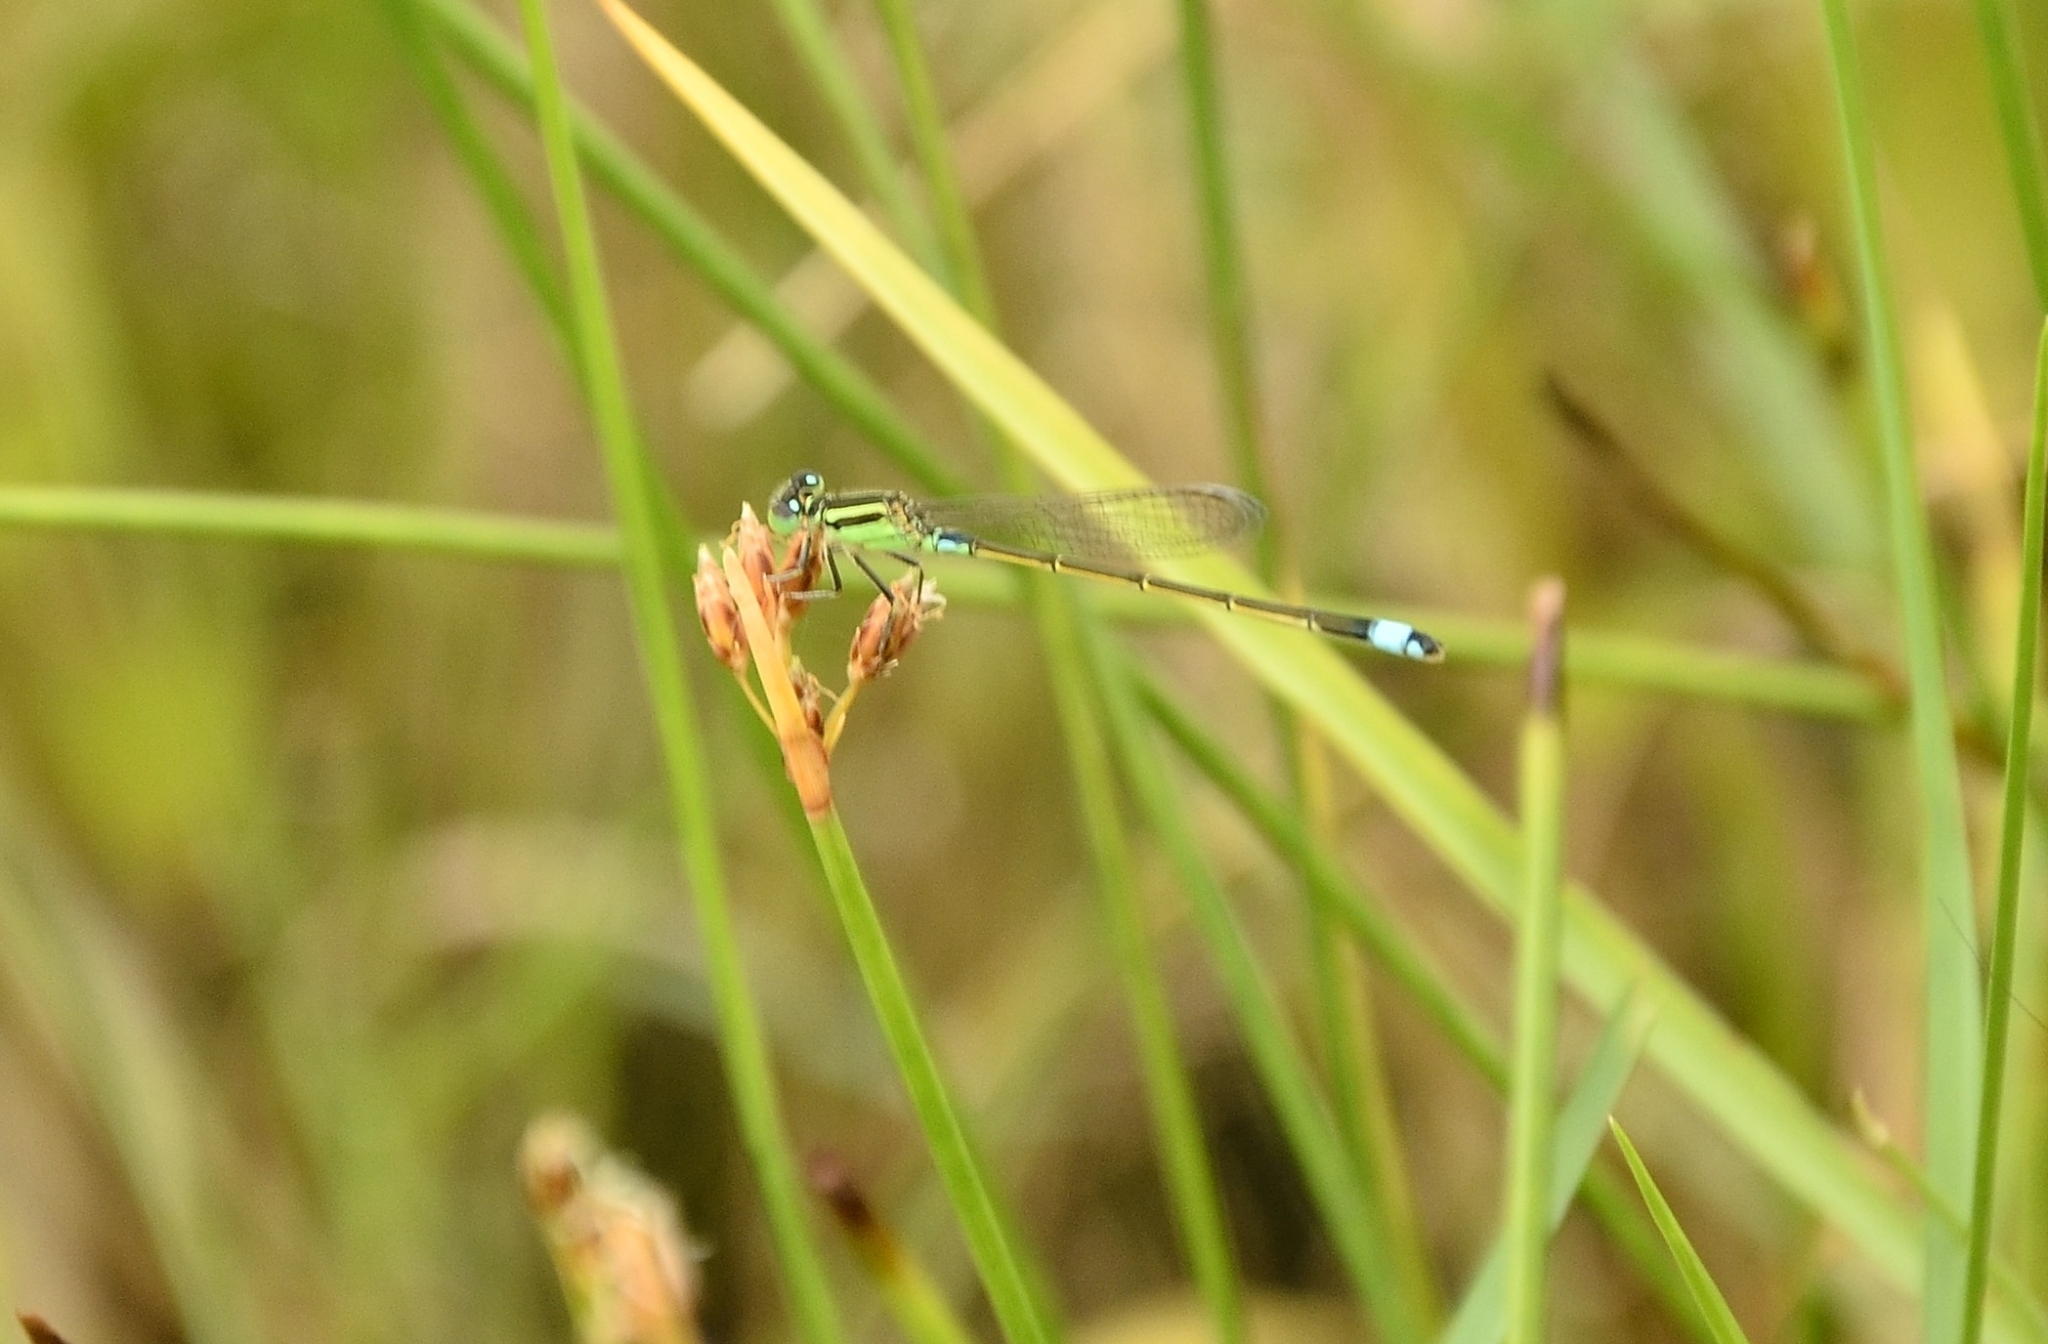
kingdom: Animalia
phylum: Arthropoda
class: Insecta
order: Odonata
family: Coenagrionidae
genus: Ischnura
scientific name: Ischnura senegalensis
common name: Tropical bluetail
